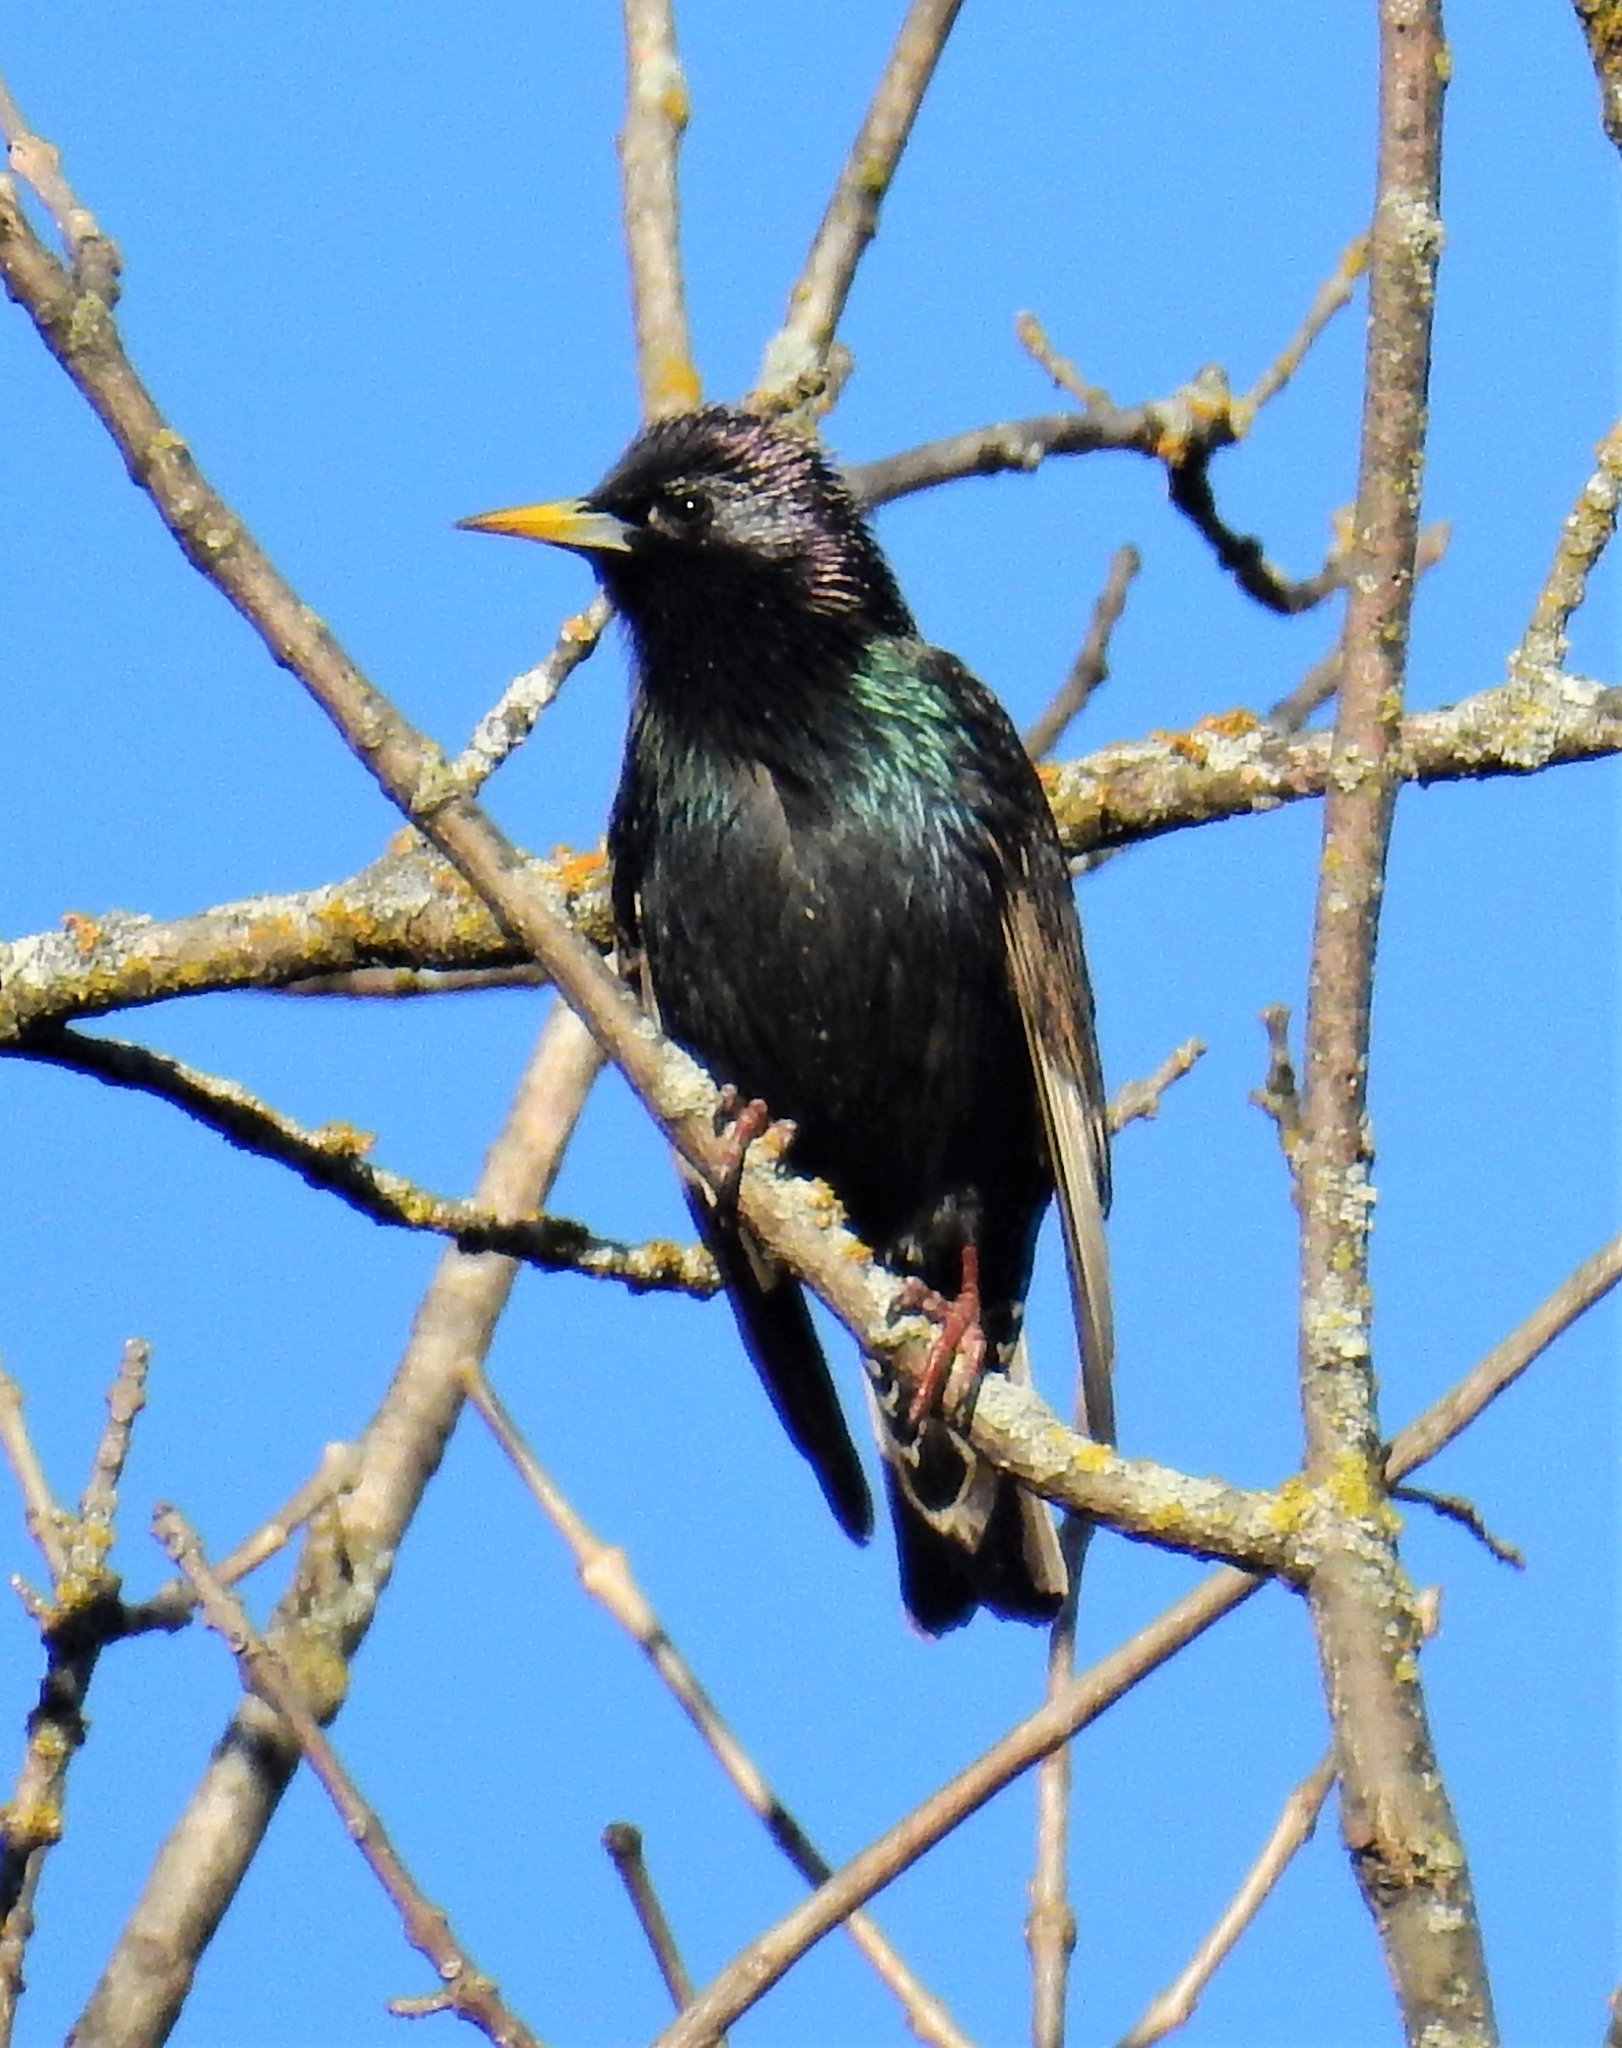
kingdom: Animalia
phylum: Chordata
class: Aves
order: Passeriformes
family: Sturnidae
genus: Sturnus
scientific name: Sturnus vulgaris
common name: Common starling
